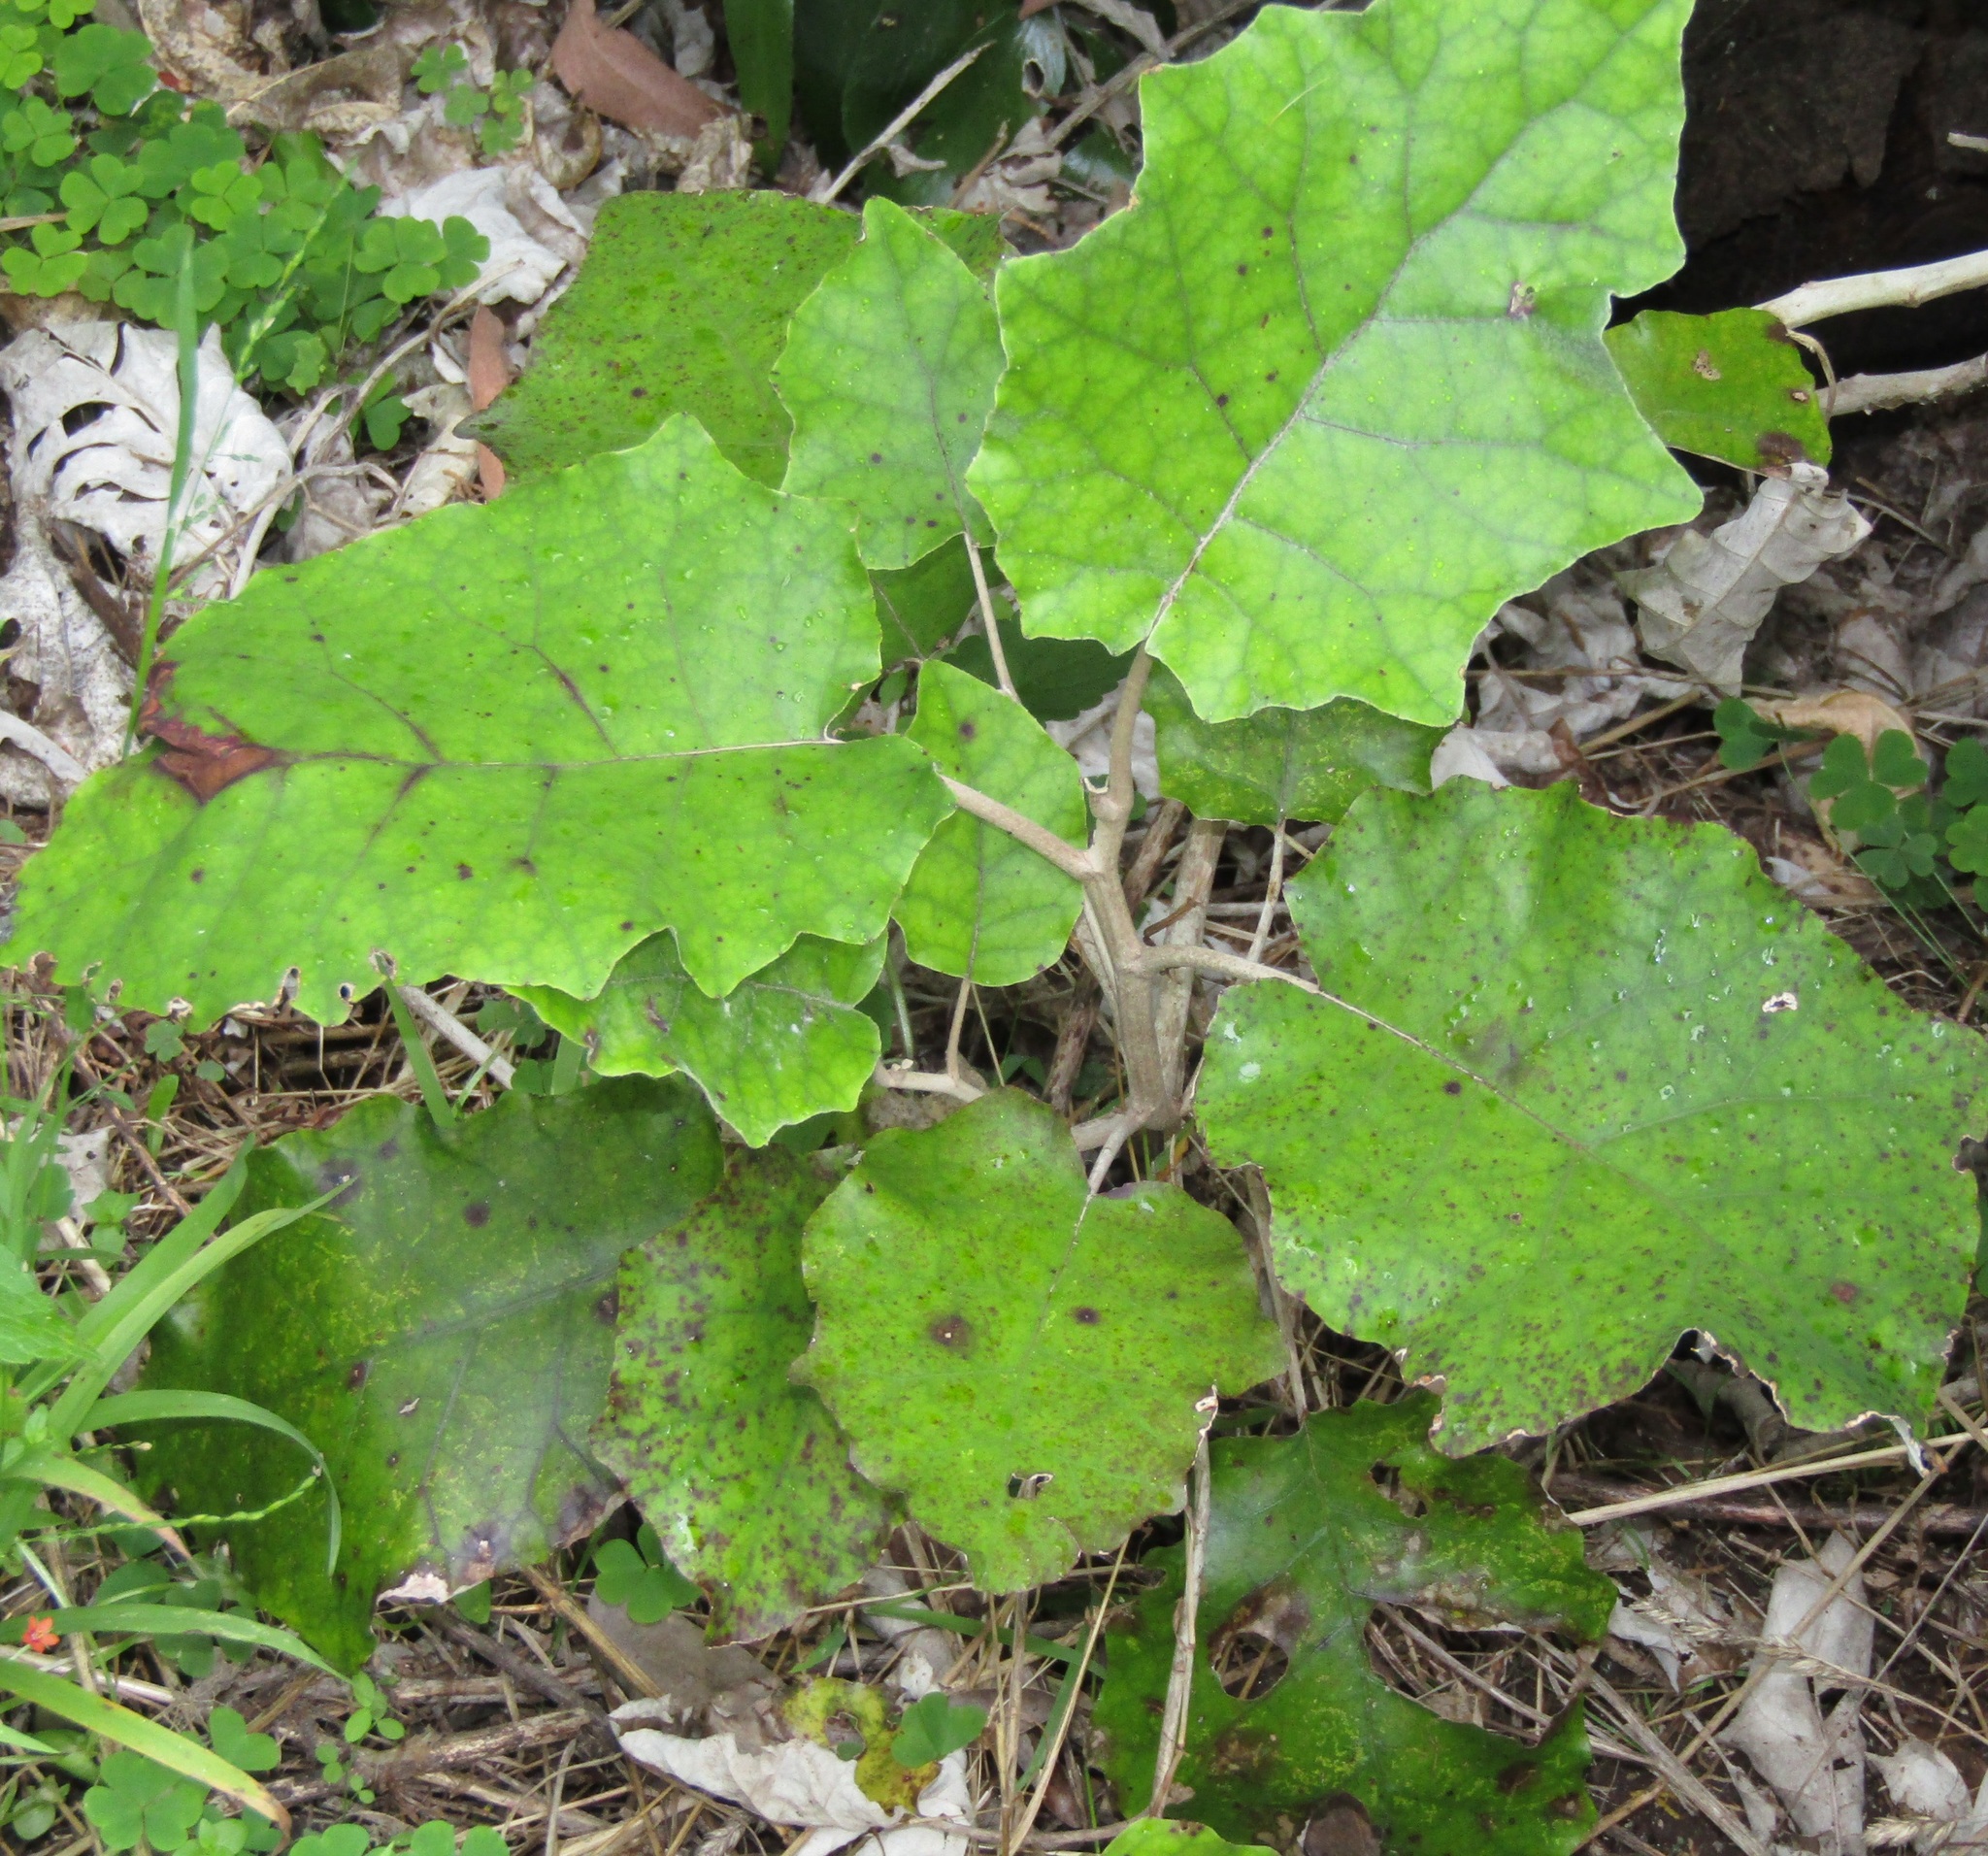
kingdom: Plantae
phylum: Tracheophyta
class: Magnoliopsida
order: Asterales
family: Asteraceae
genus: Brachyglottis
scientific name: Brachyglottis repanda
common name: Hedge ragwort
